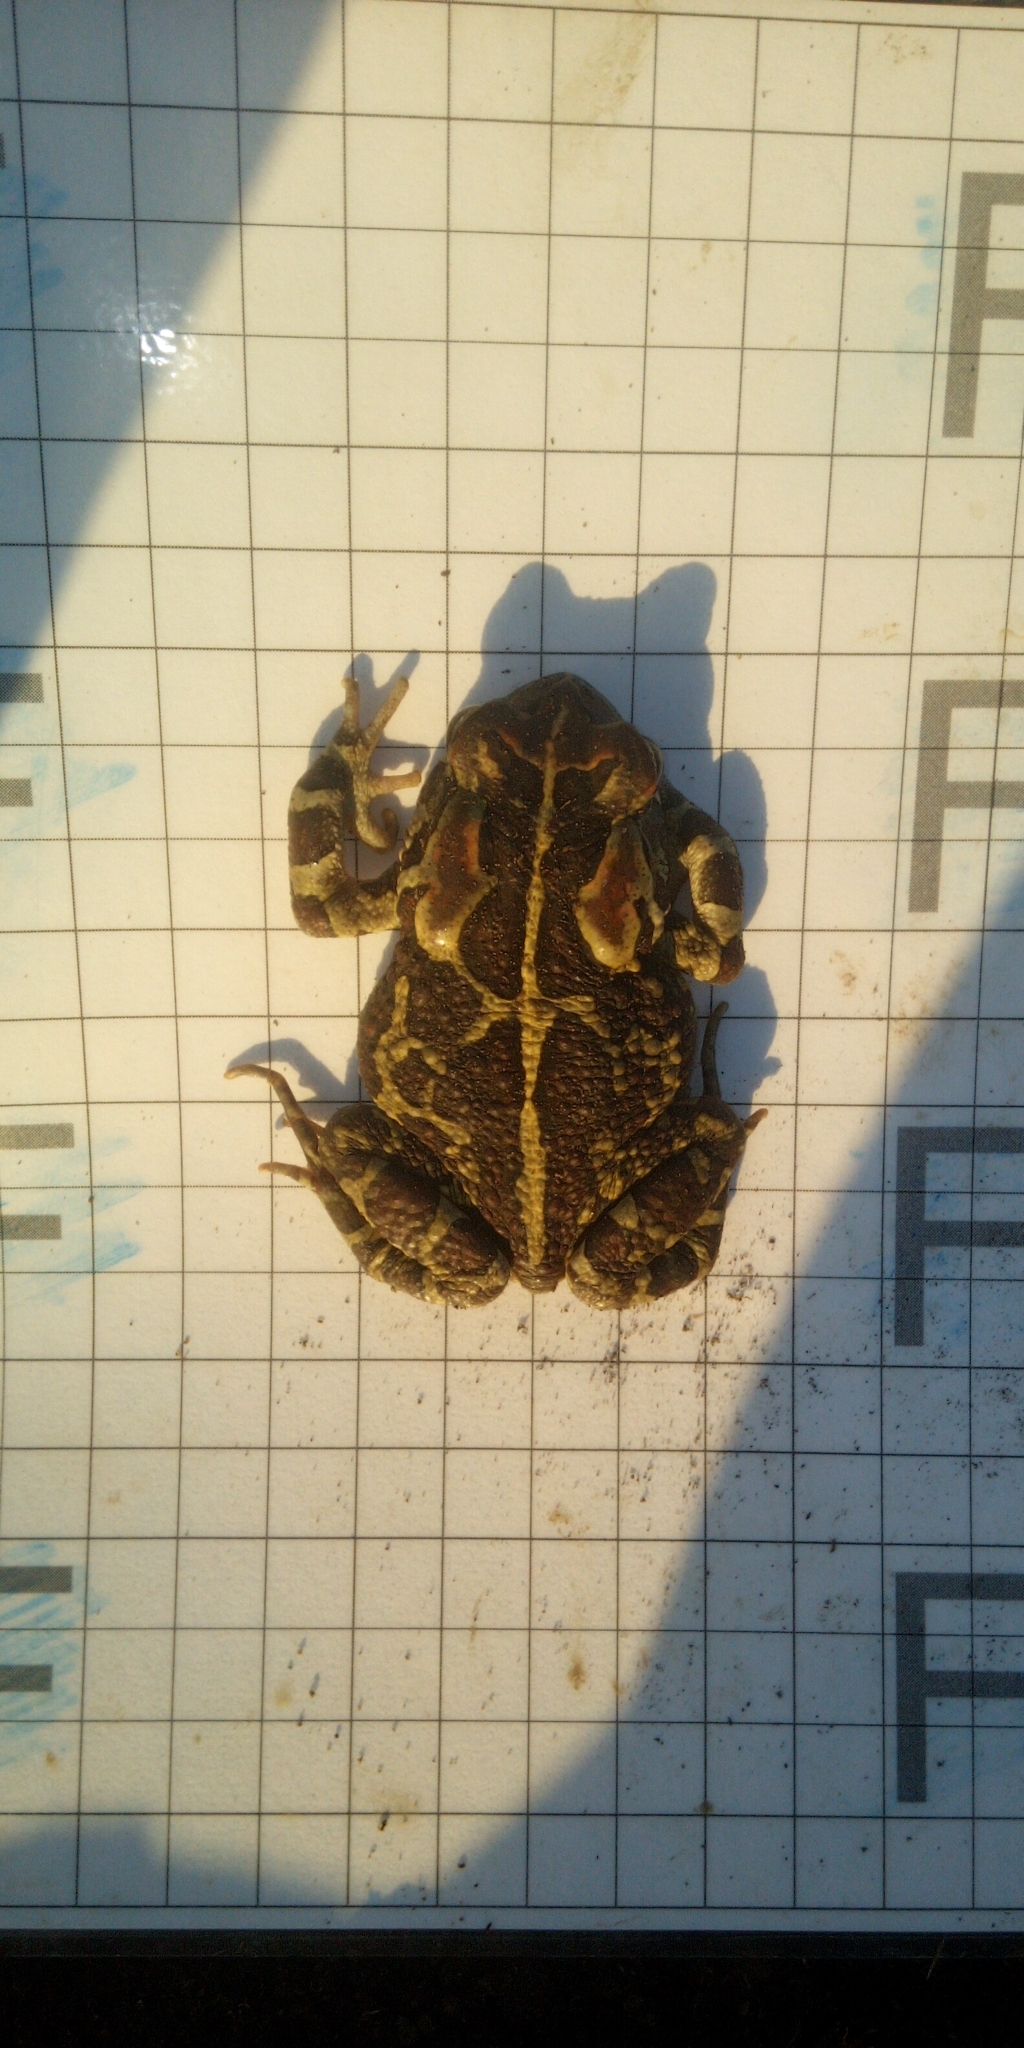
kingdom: Animalia
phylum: Chordata
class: Amphibia
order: Anura
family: Bufonidae
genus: Sclerophrys
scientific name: Sclerophrys pantherina
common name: Panther toad
